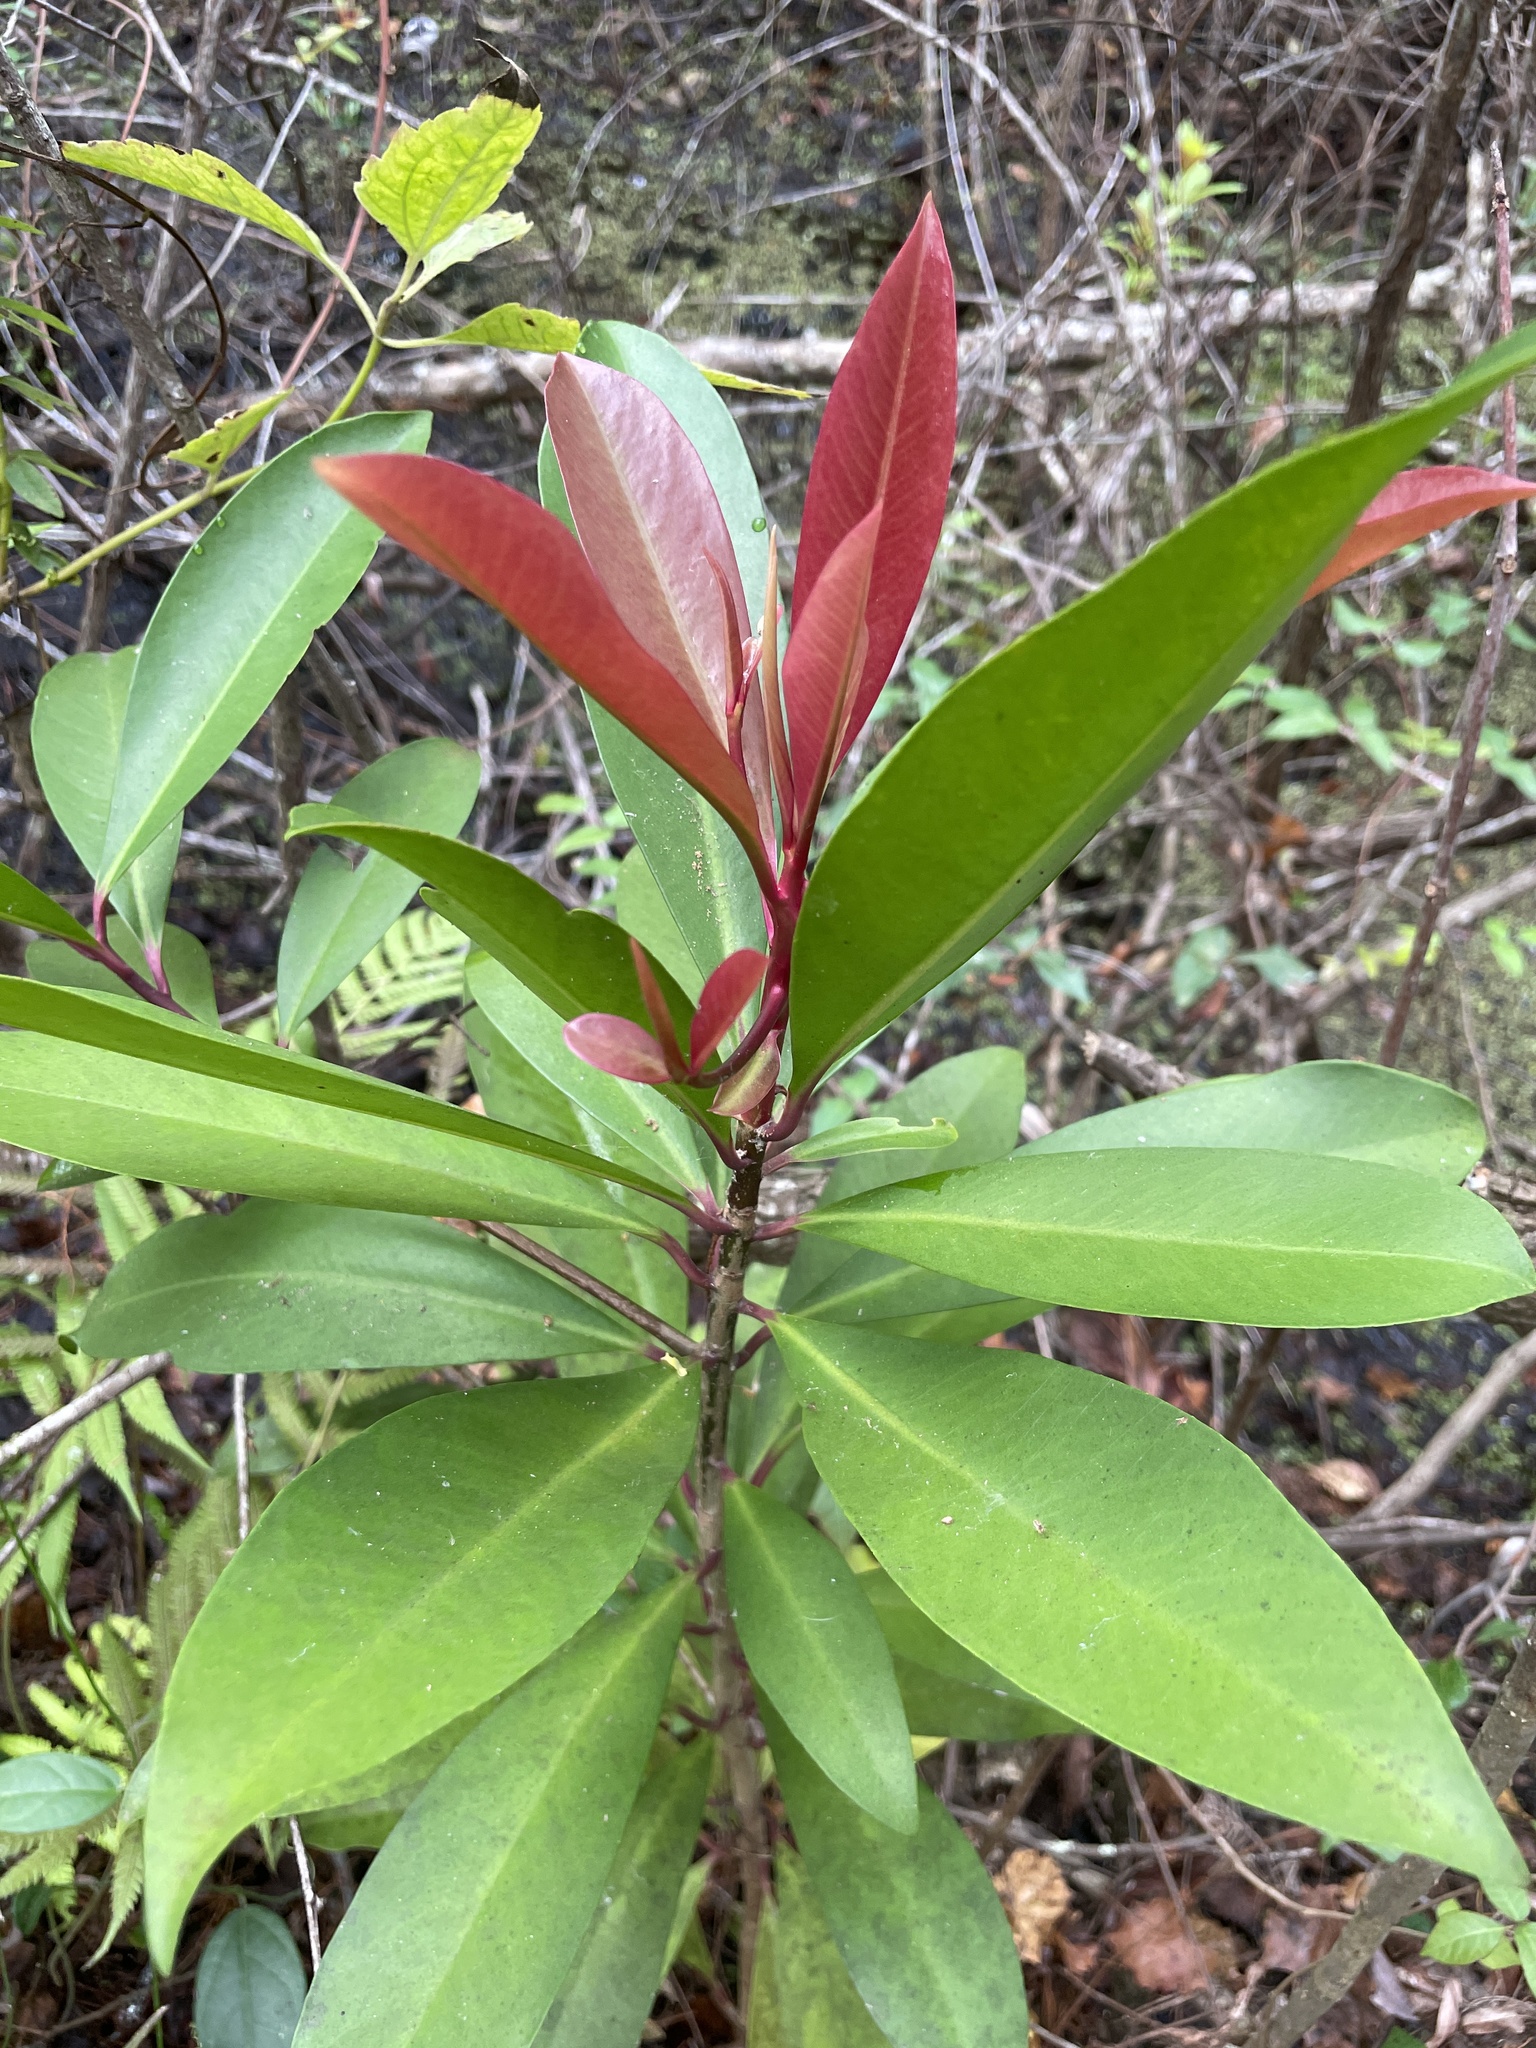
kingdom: Plantae
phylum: Tracheophyta
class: Magnoliopsida
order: Ericales
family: Primulaceae
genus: Ardisia
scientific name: Ardisia elliptica
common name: Shoebutton
